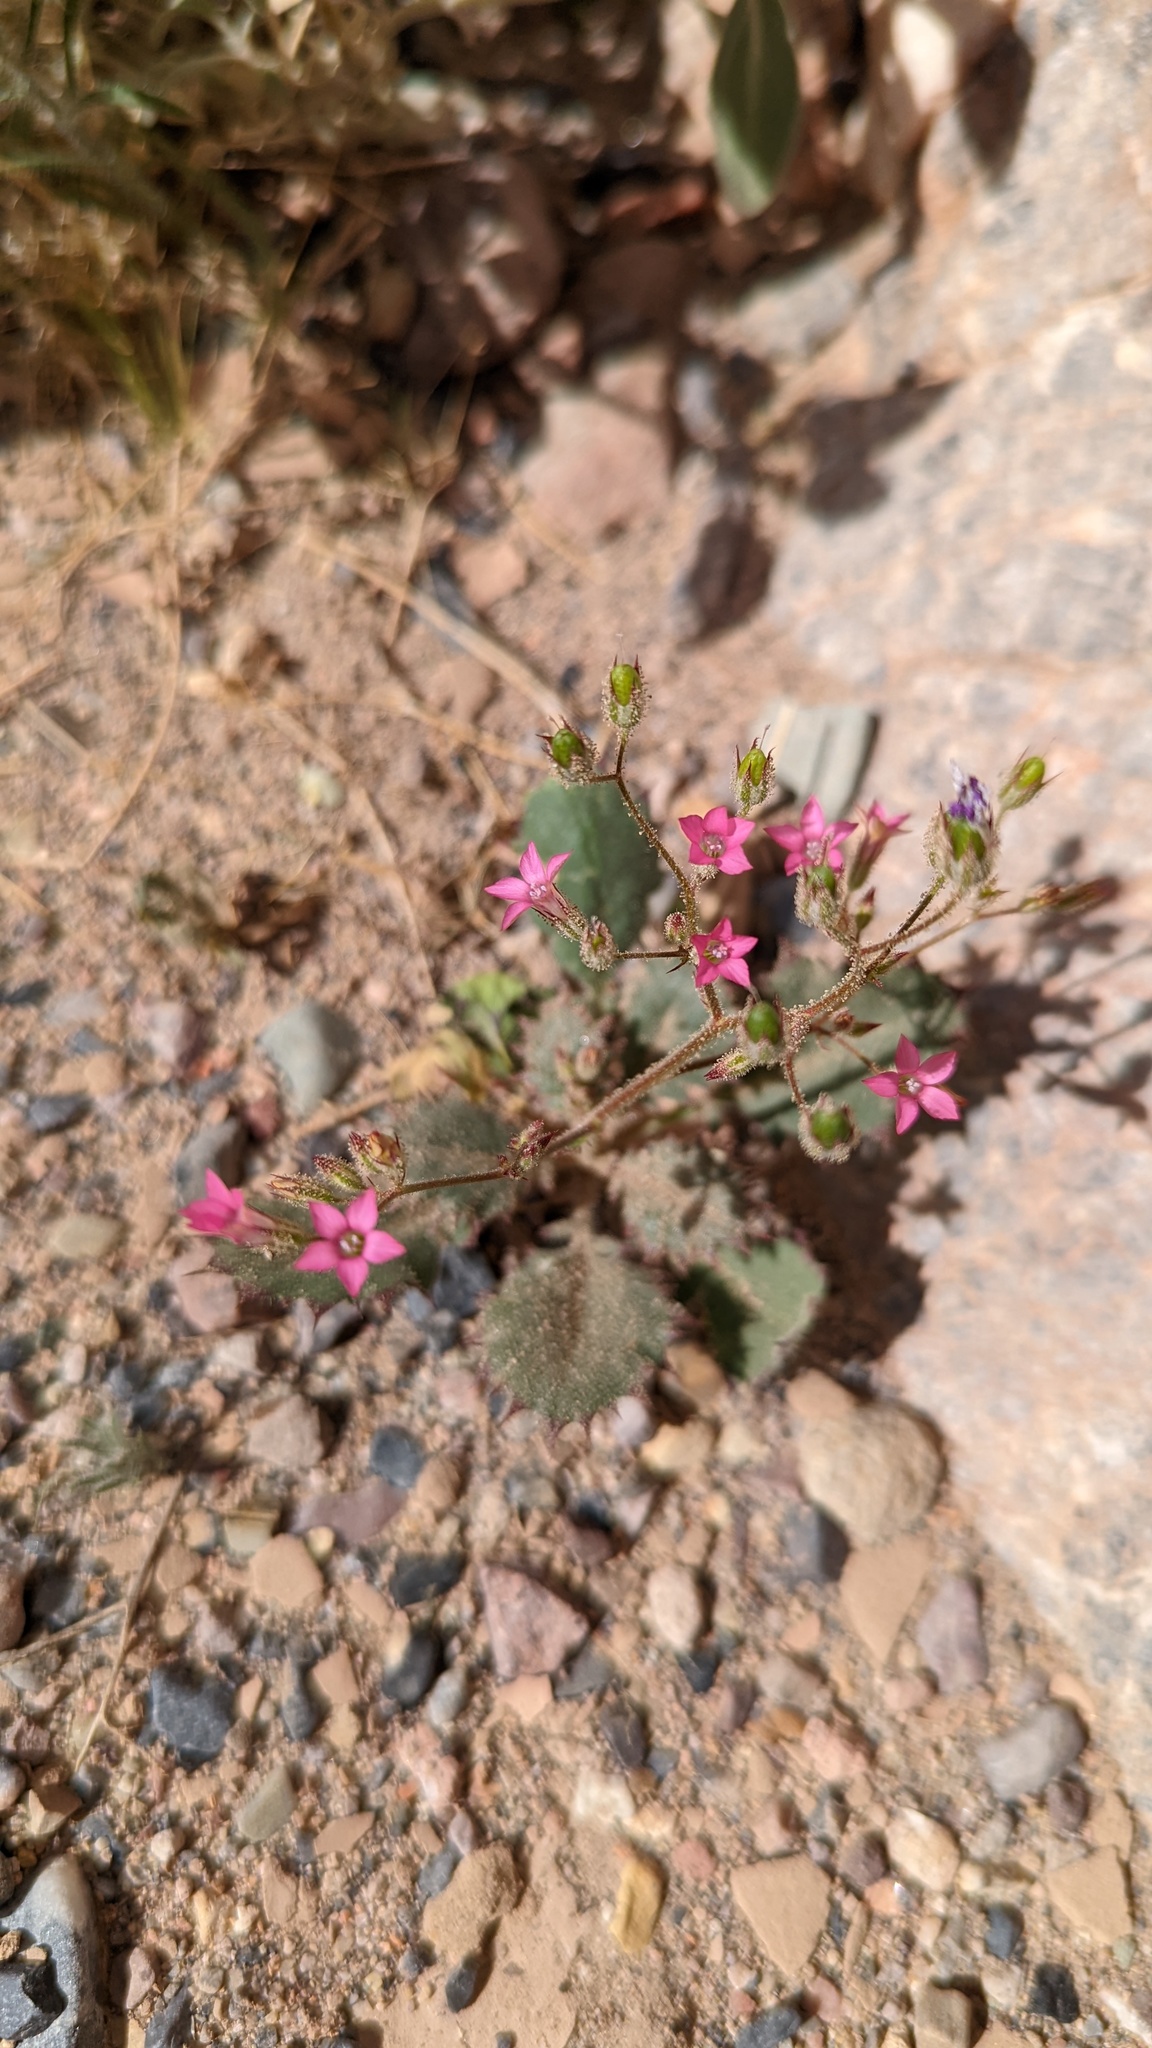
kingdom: Plantae
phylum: Tracheophyta
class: Magnoliopsida
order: Ericales
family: Polemoniaceae
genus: Aliciella
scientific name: Aliciella latifolia
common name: Broad-leaf gilia
